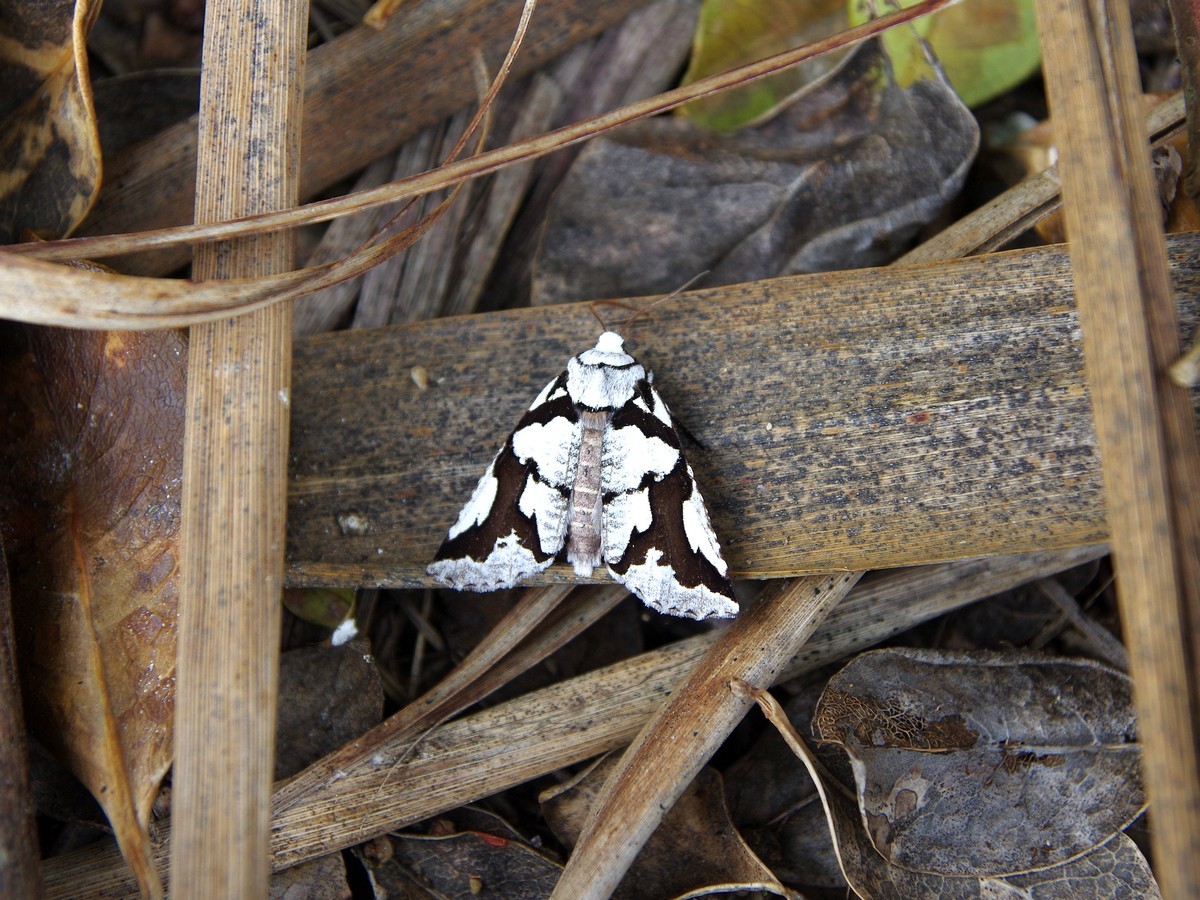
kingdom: Animalia
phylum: Arthropoda
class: Insecta
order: Lepidoptera
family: Geometridae
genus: Declana
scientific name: Declana
